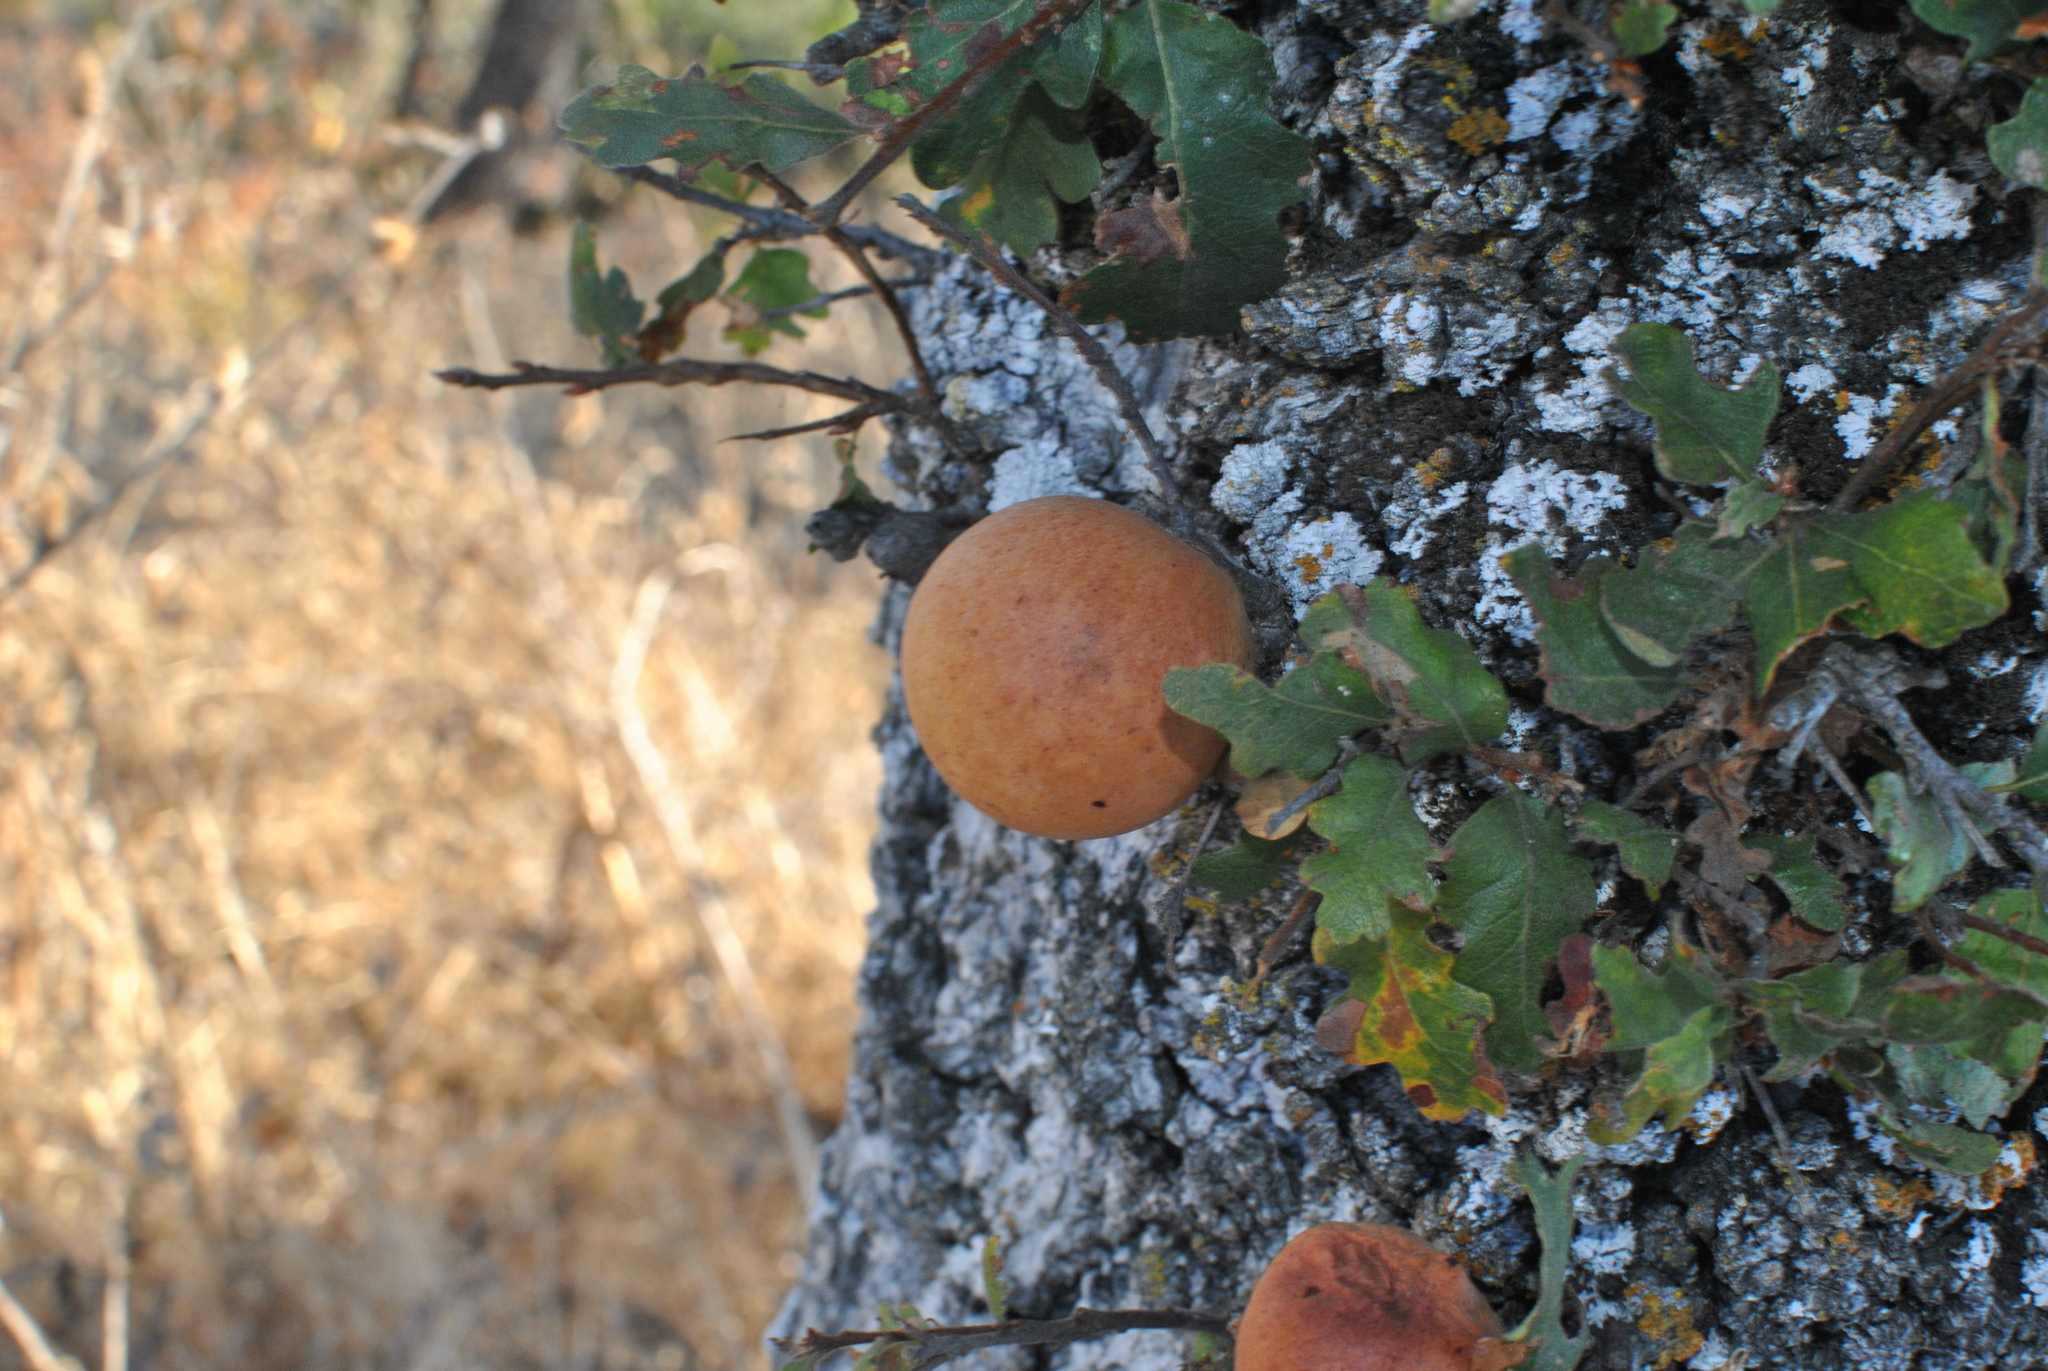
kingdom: Animalia
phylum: Arthropoda
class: Insecta
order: Hymenoptera
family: Cynipidae
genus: Andricus
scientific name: Andricus quercuscalifornicus
